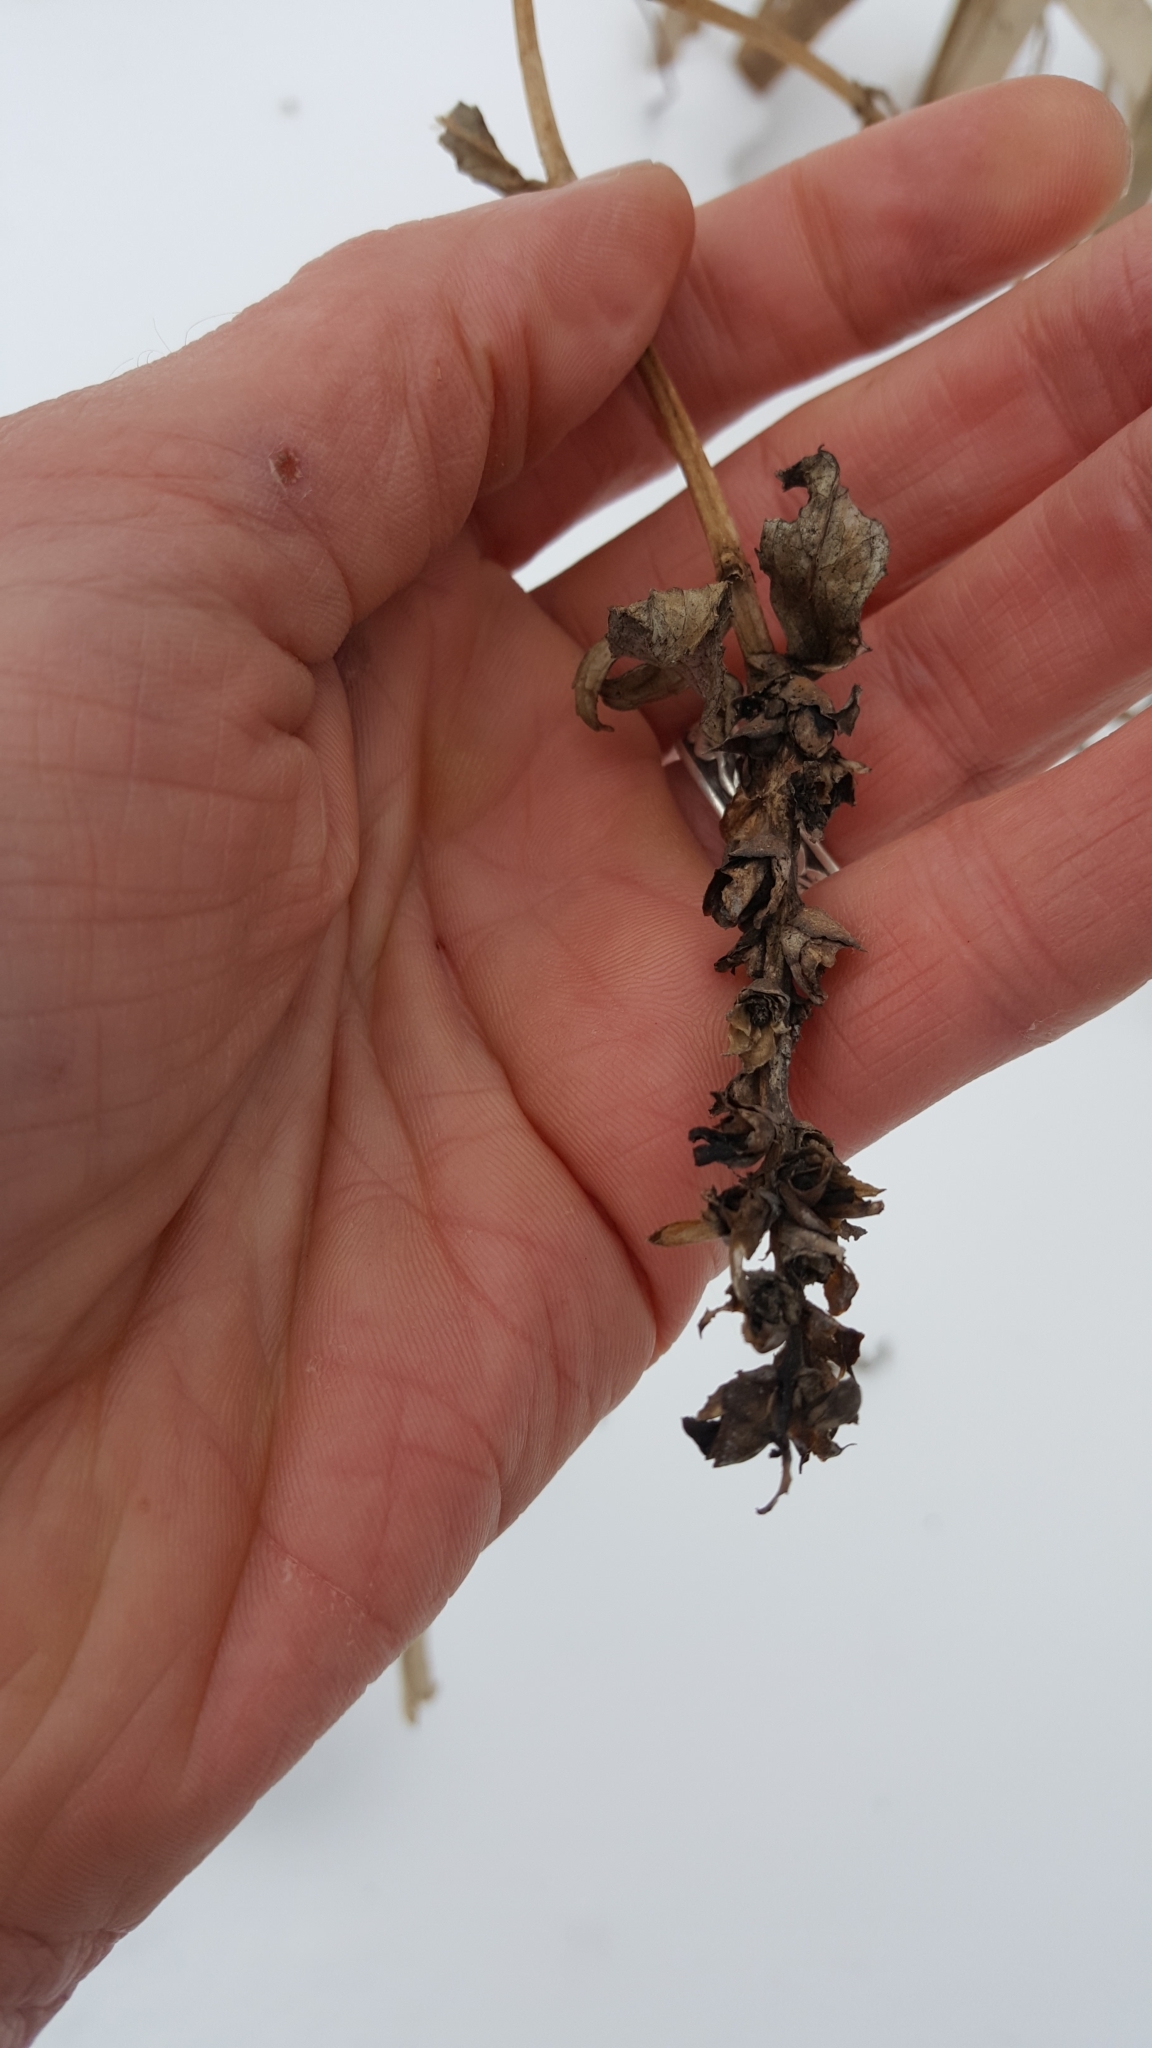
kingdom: Plantae
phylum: Tracheophyta
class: Magnoliopsida
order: Lamiales
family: Plantaginaceae
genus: Chelone
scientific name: Chelone glabra
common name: Snakehead
